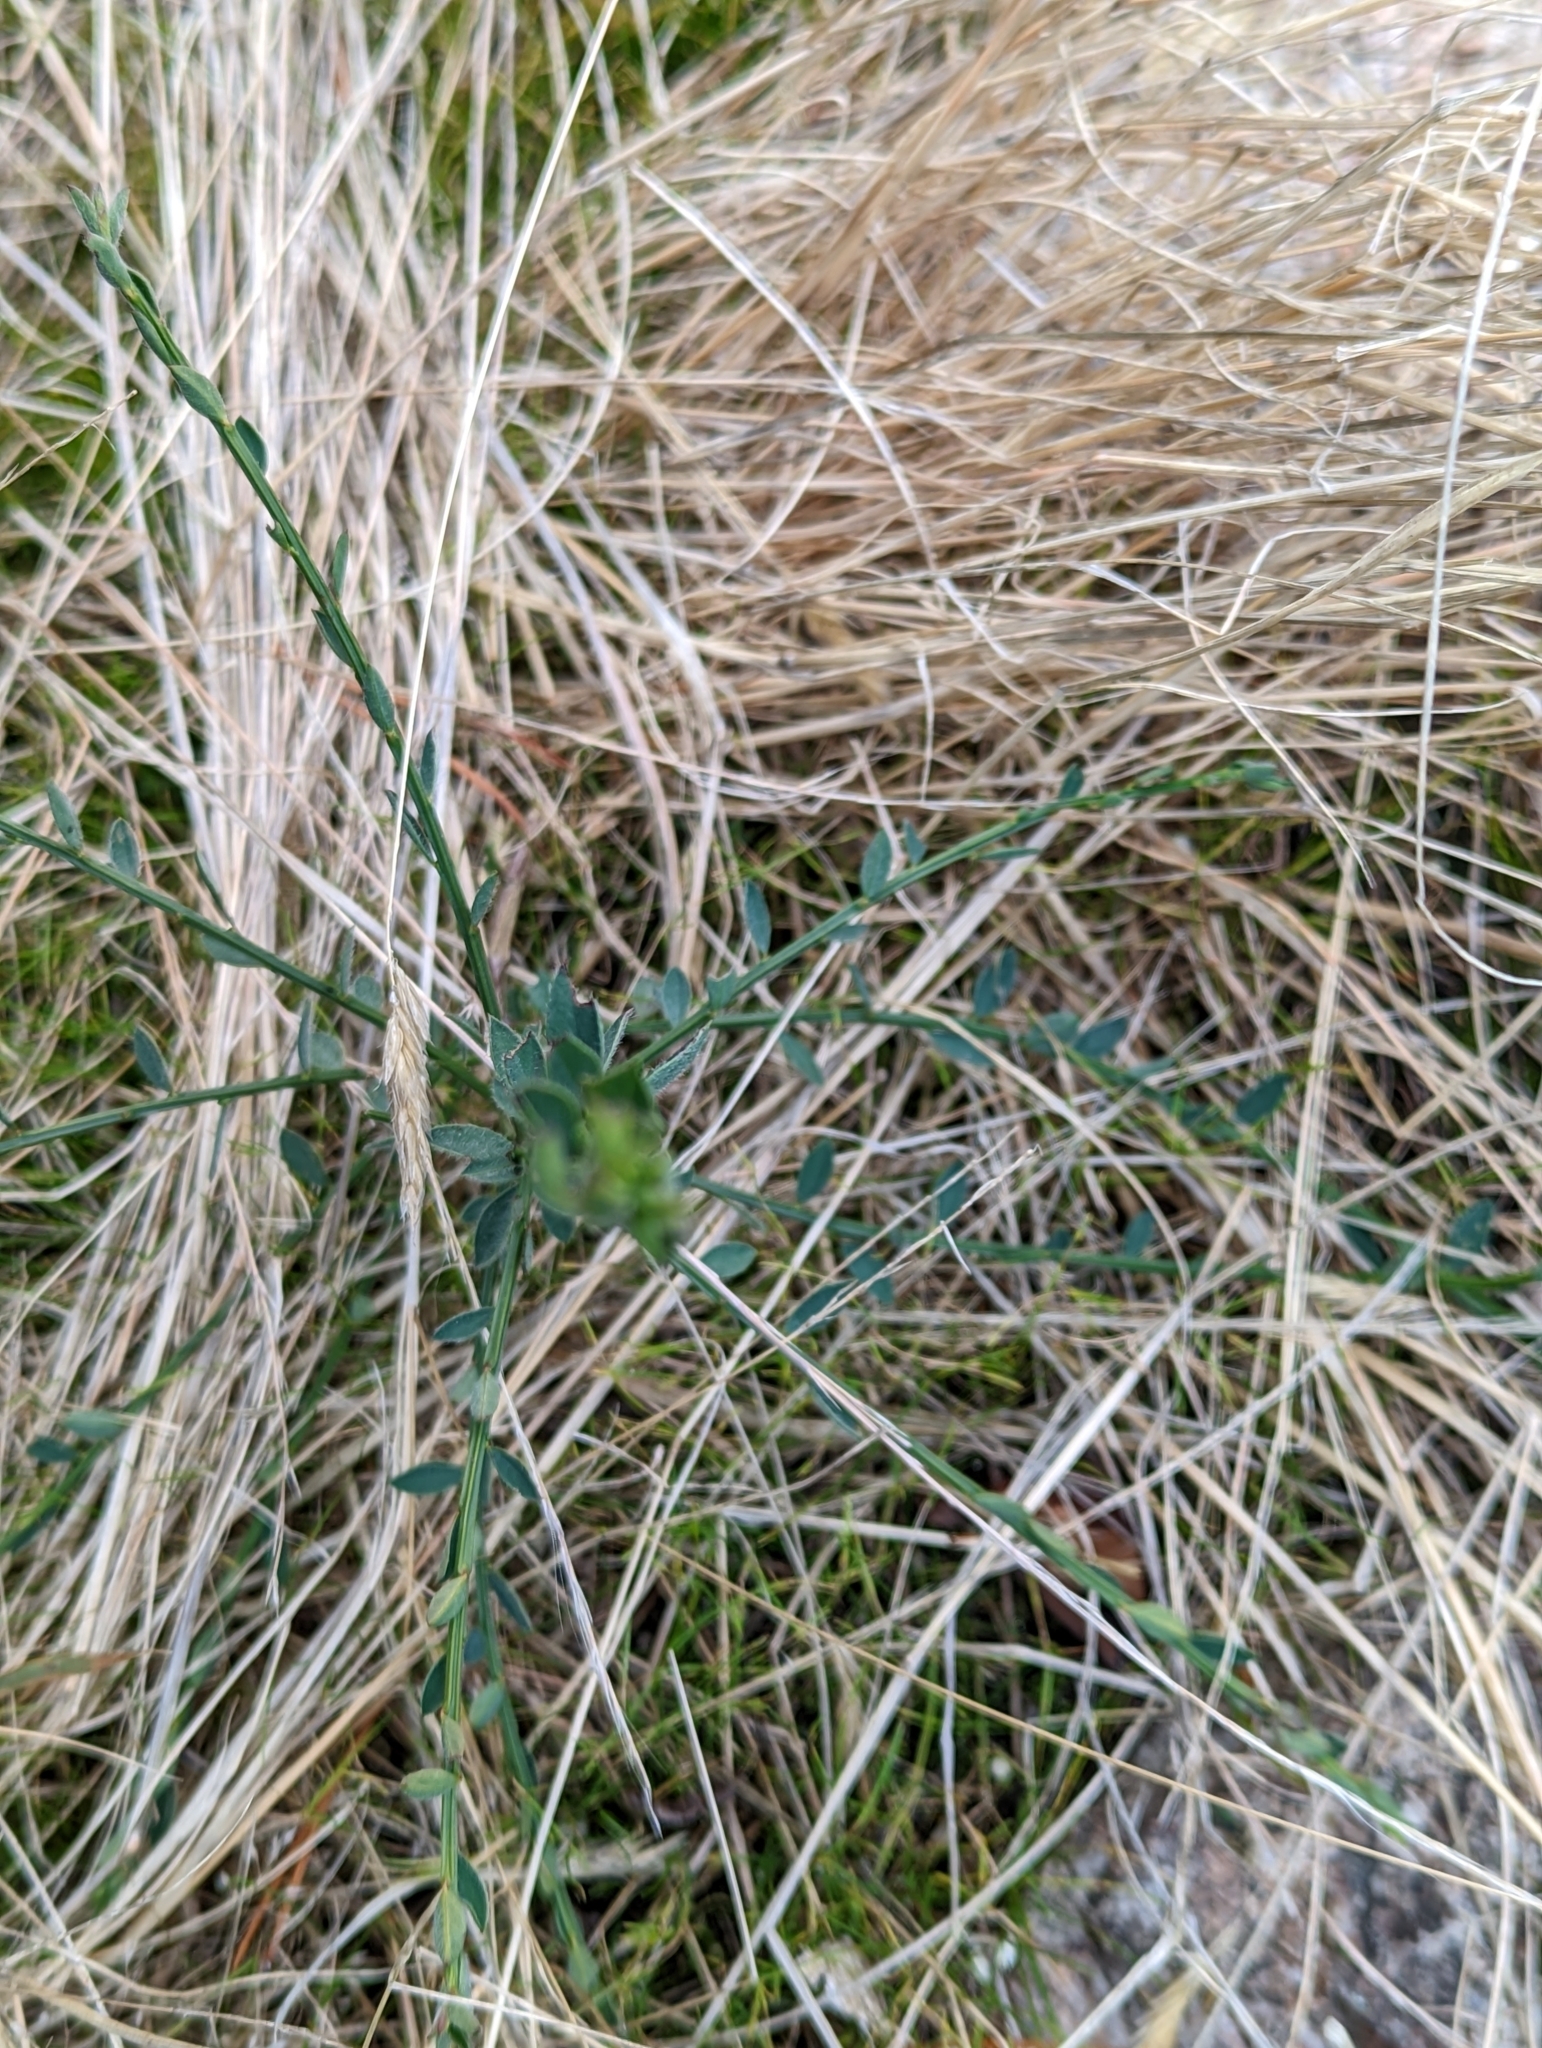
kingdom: Plantae
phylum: Tracheophyta
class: Magnoliopsida
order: Fabales
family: Fabaceae
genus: Cytisus
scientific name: Cytisus scoparius
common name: Scotch broom
